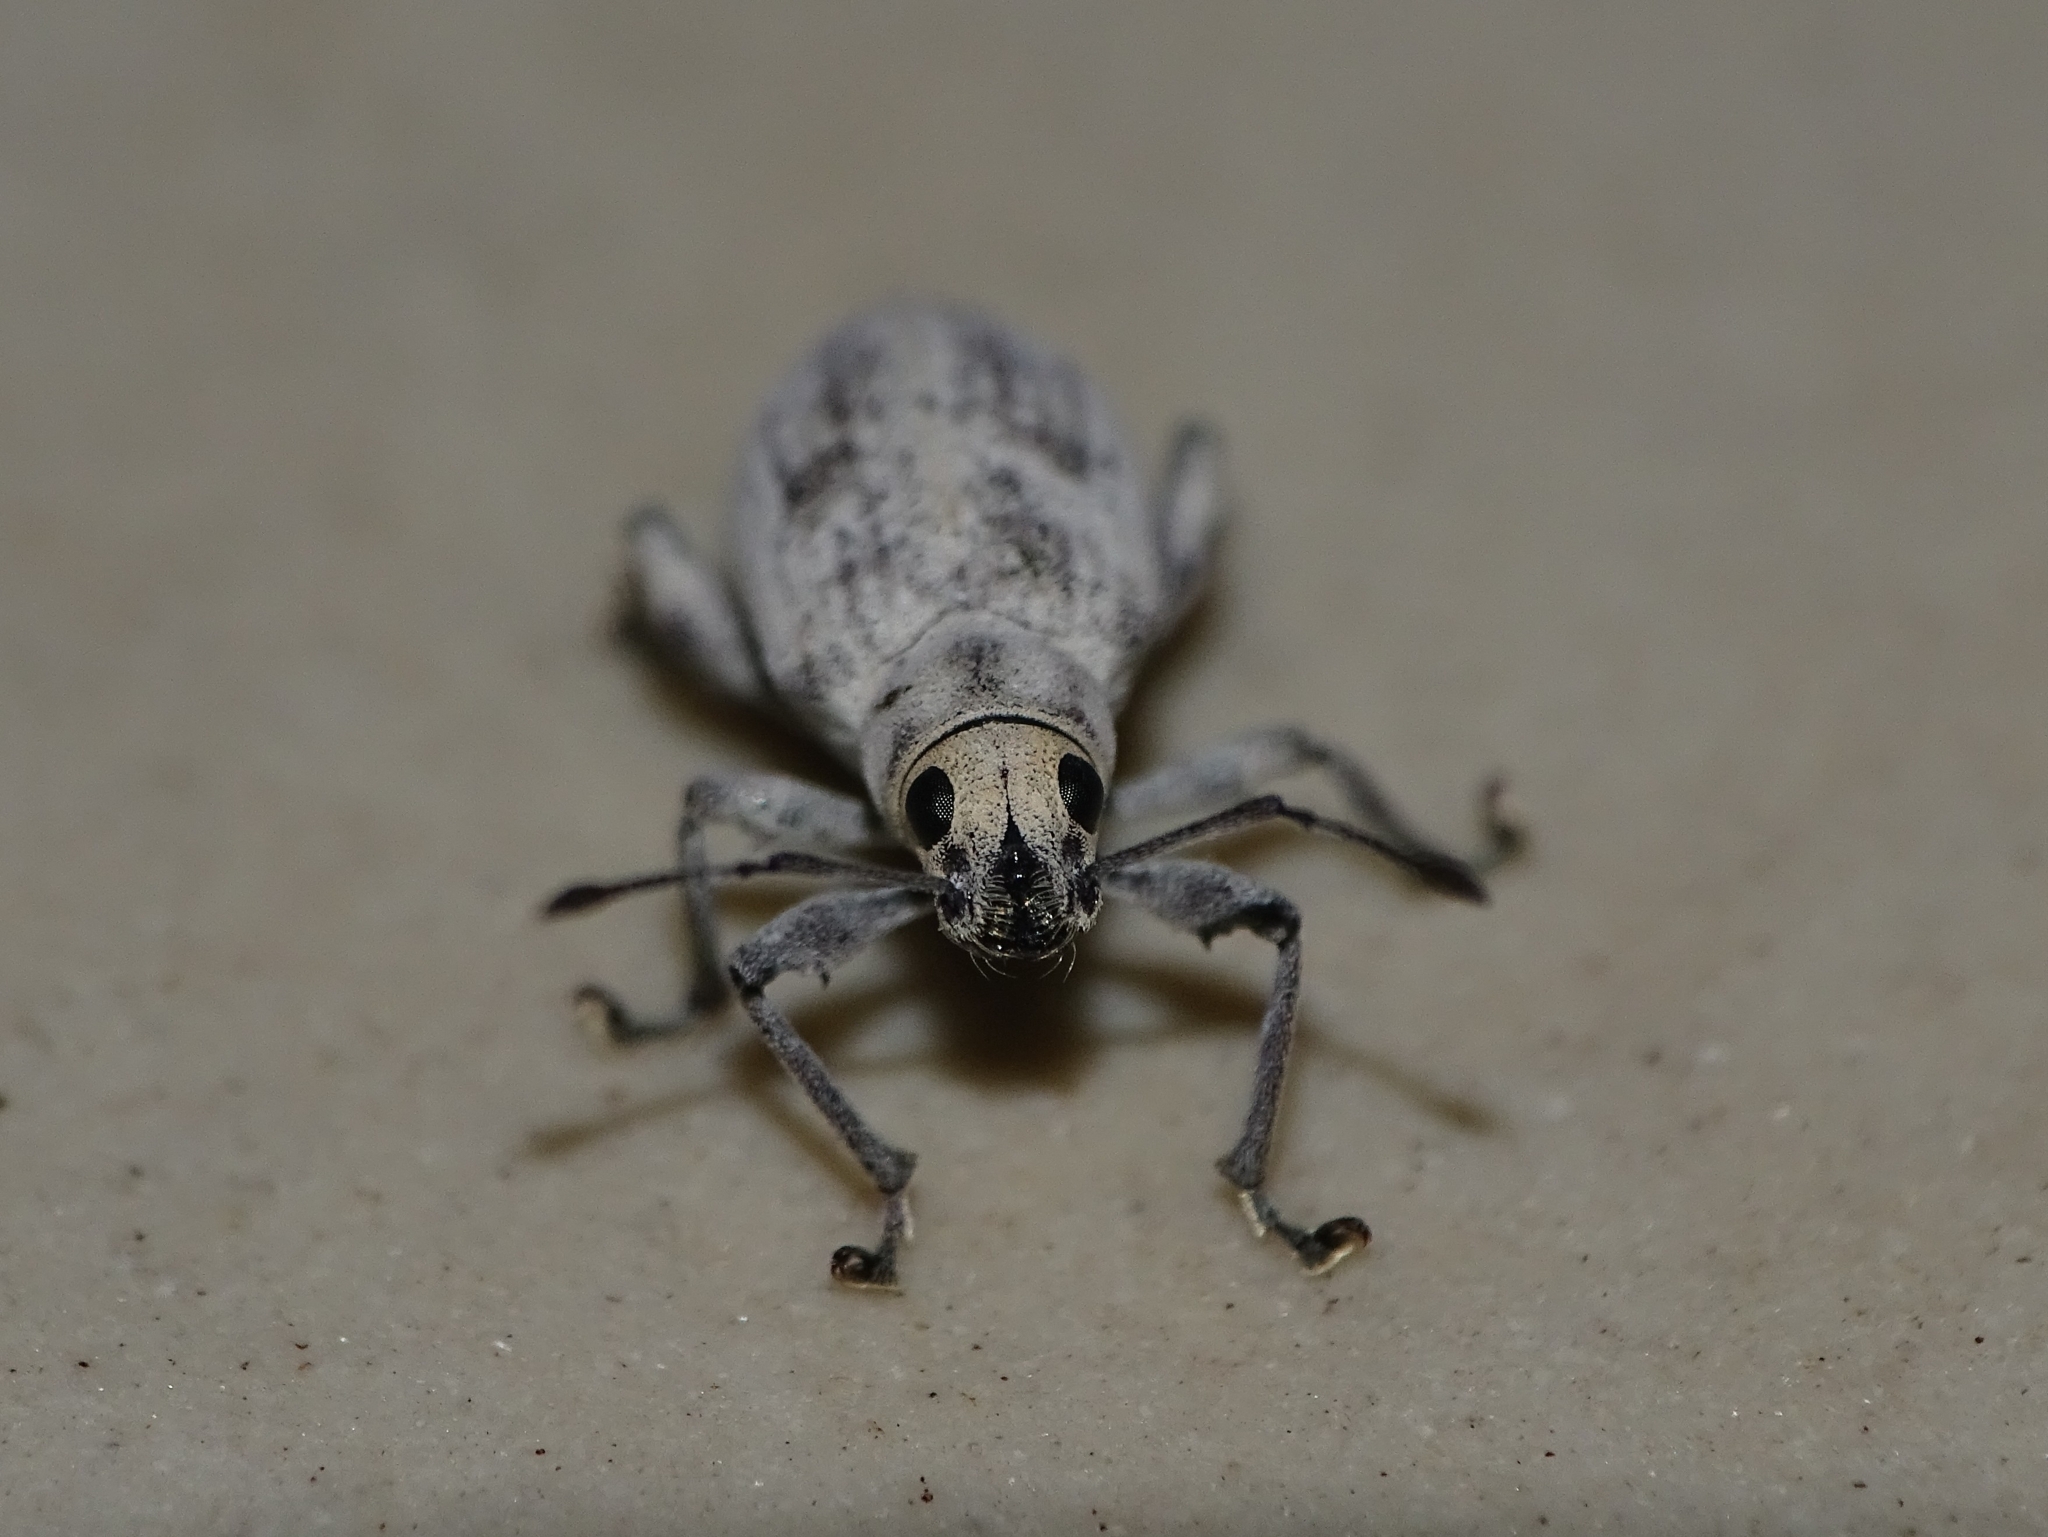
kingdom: Animalia
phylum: Arthropoda
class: Insecta
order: Coleoptera
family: Curculionidae
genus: Myllocerus
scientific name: Myllocerus undecimpustulatus
